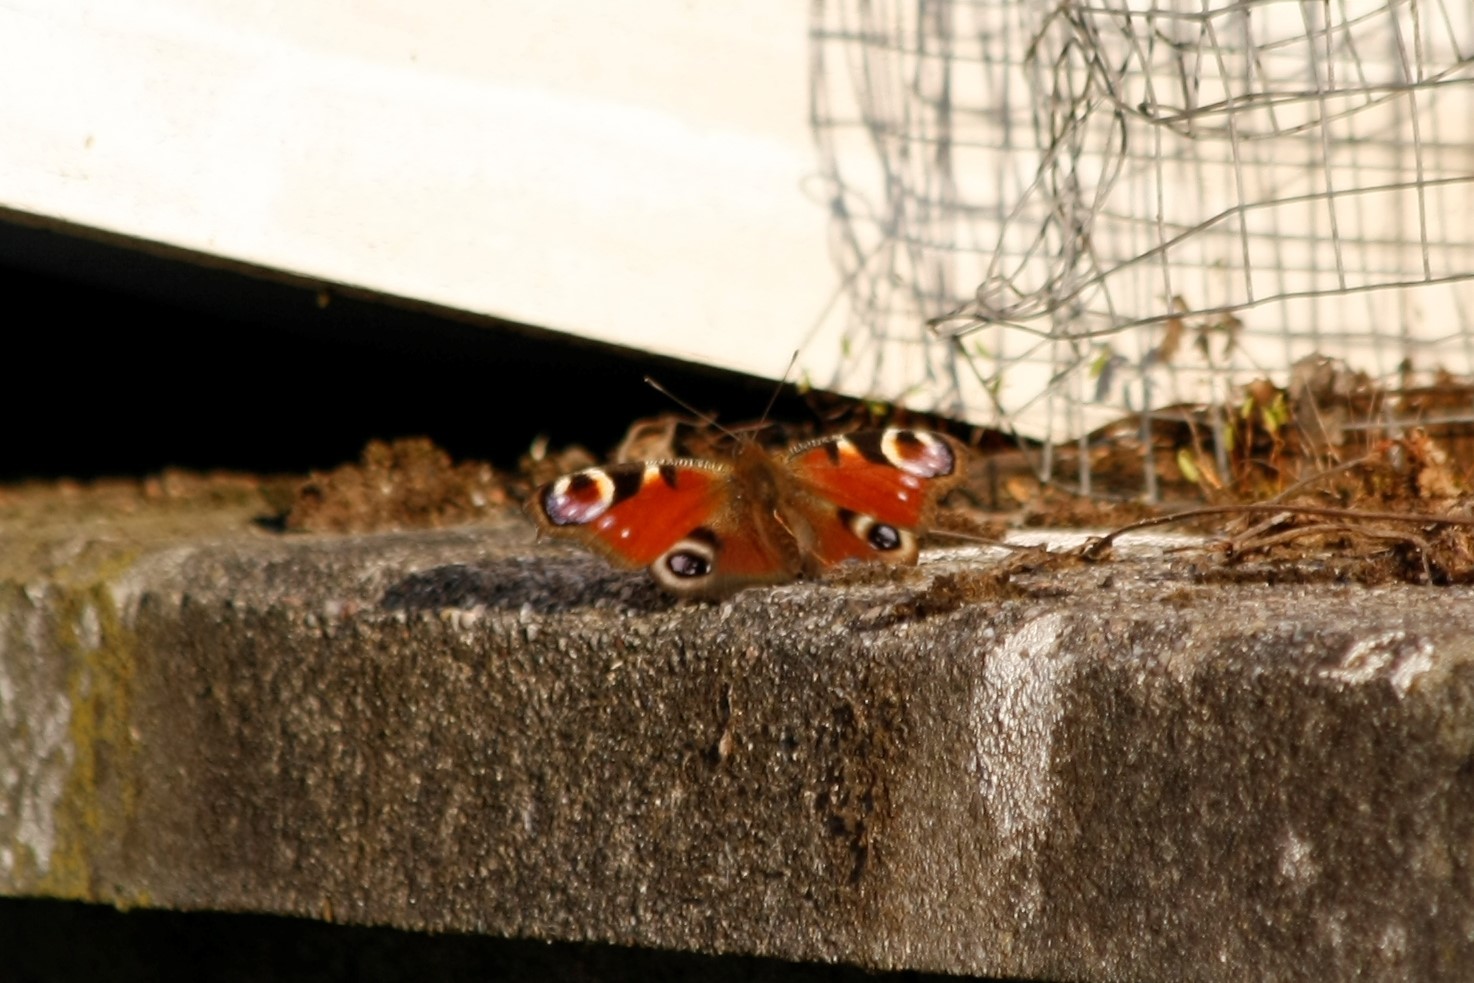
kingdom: Animalia
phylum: Arthropoda
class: Insecta
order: Lepidoptera
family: Nymphalidae
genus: Aglais
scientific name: Aglais io
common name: Peacock
